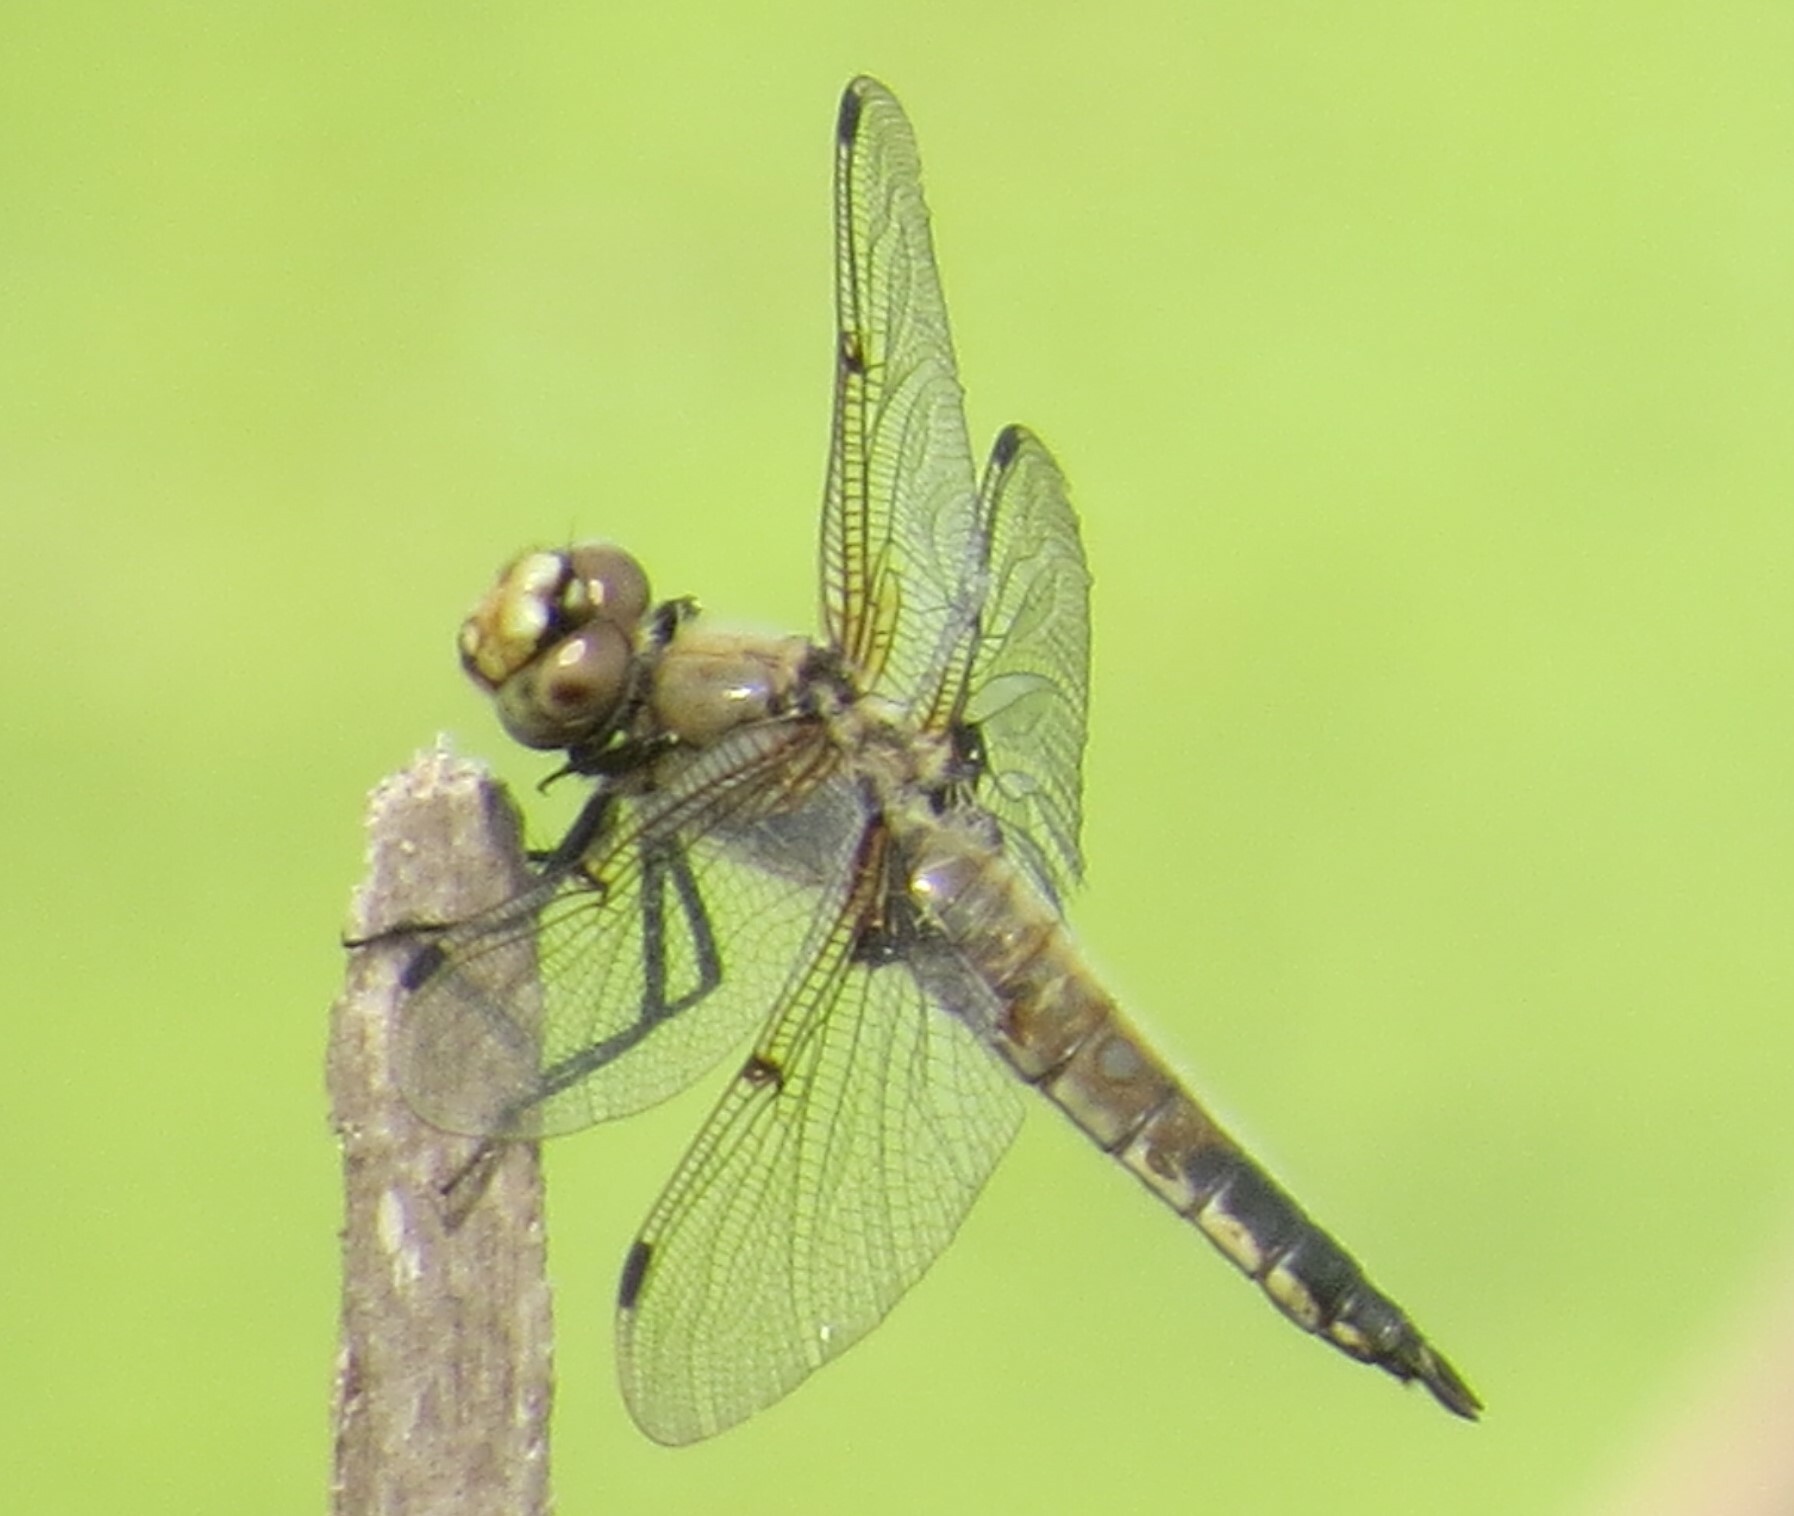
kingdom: Animalia
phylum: Arthropoda
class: Insecta
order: Odonata
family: Libellulidae
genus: Libellula
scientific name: Libellula quadrimaculata
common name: Four-spotted chaser
